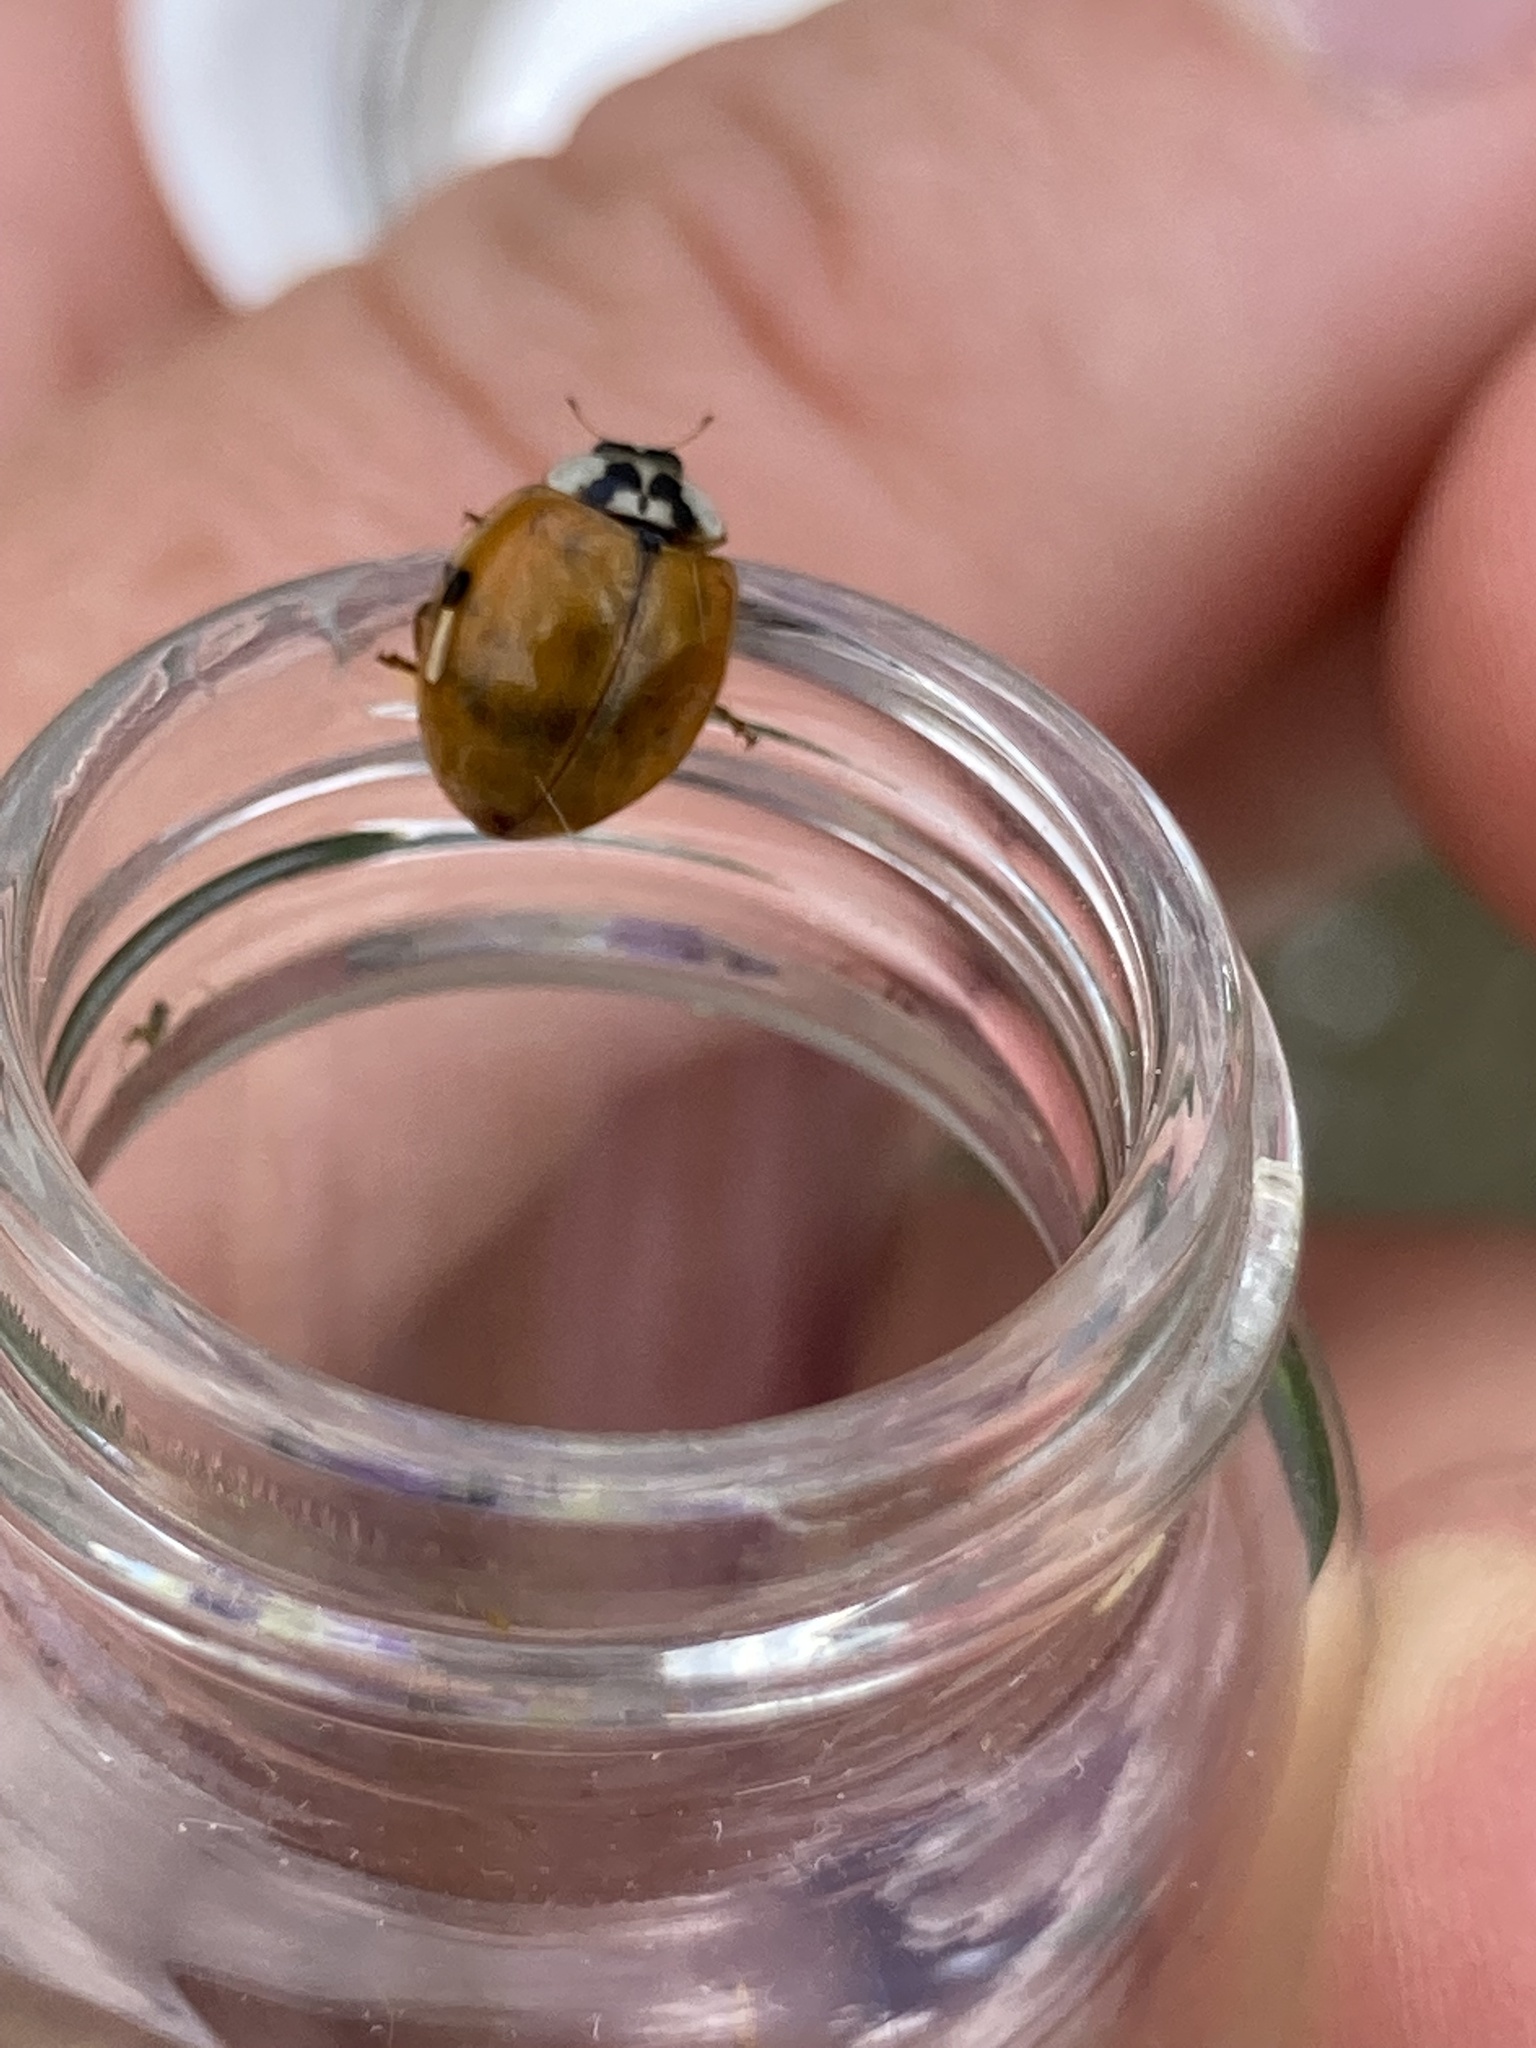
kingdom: Animalia
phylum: Arthropoda
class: Insecta
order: Coleoptera
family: Coccinellidae
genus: Harmonia
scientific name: Harmonia axyridis
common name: Harlequin ladybird
